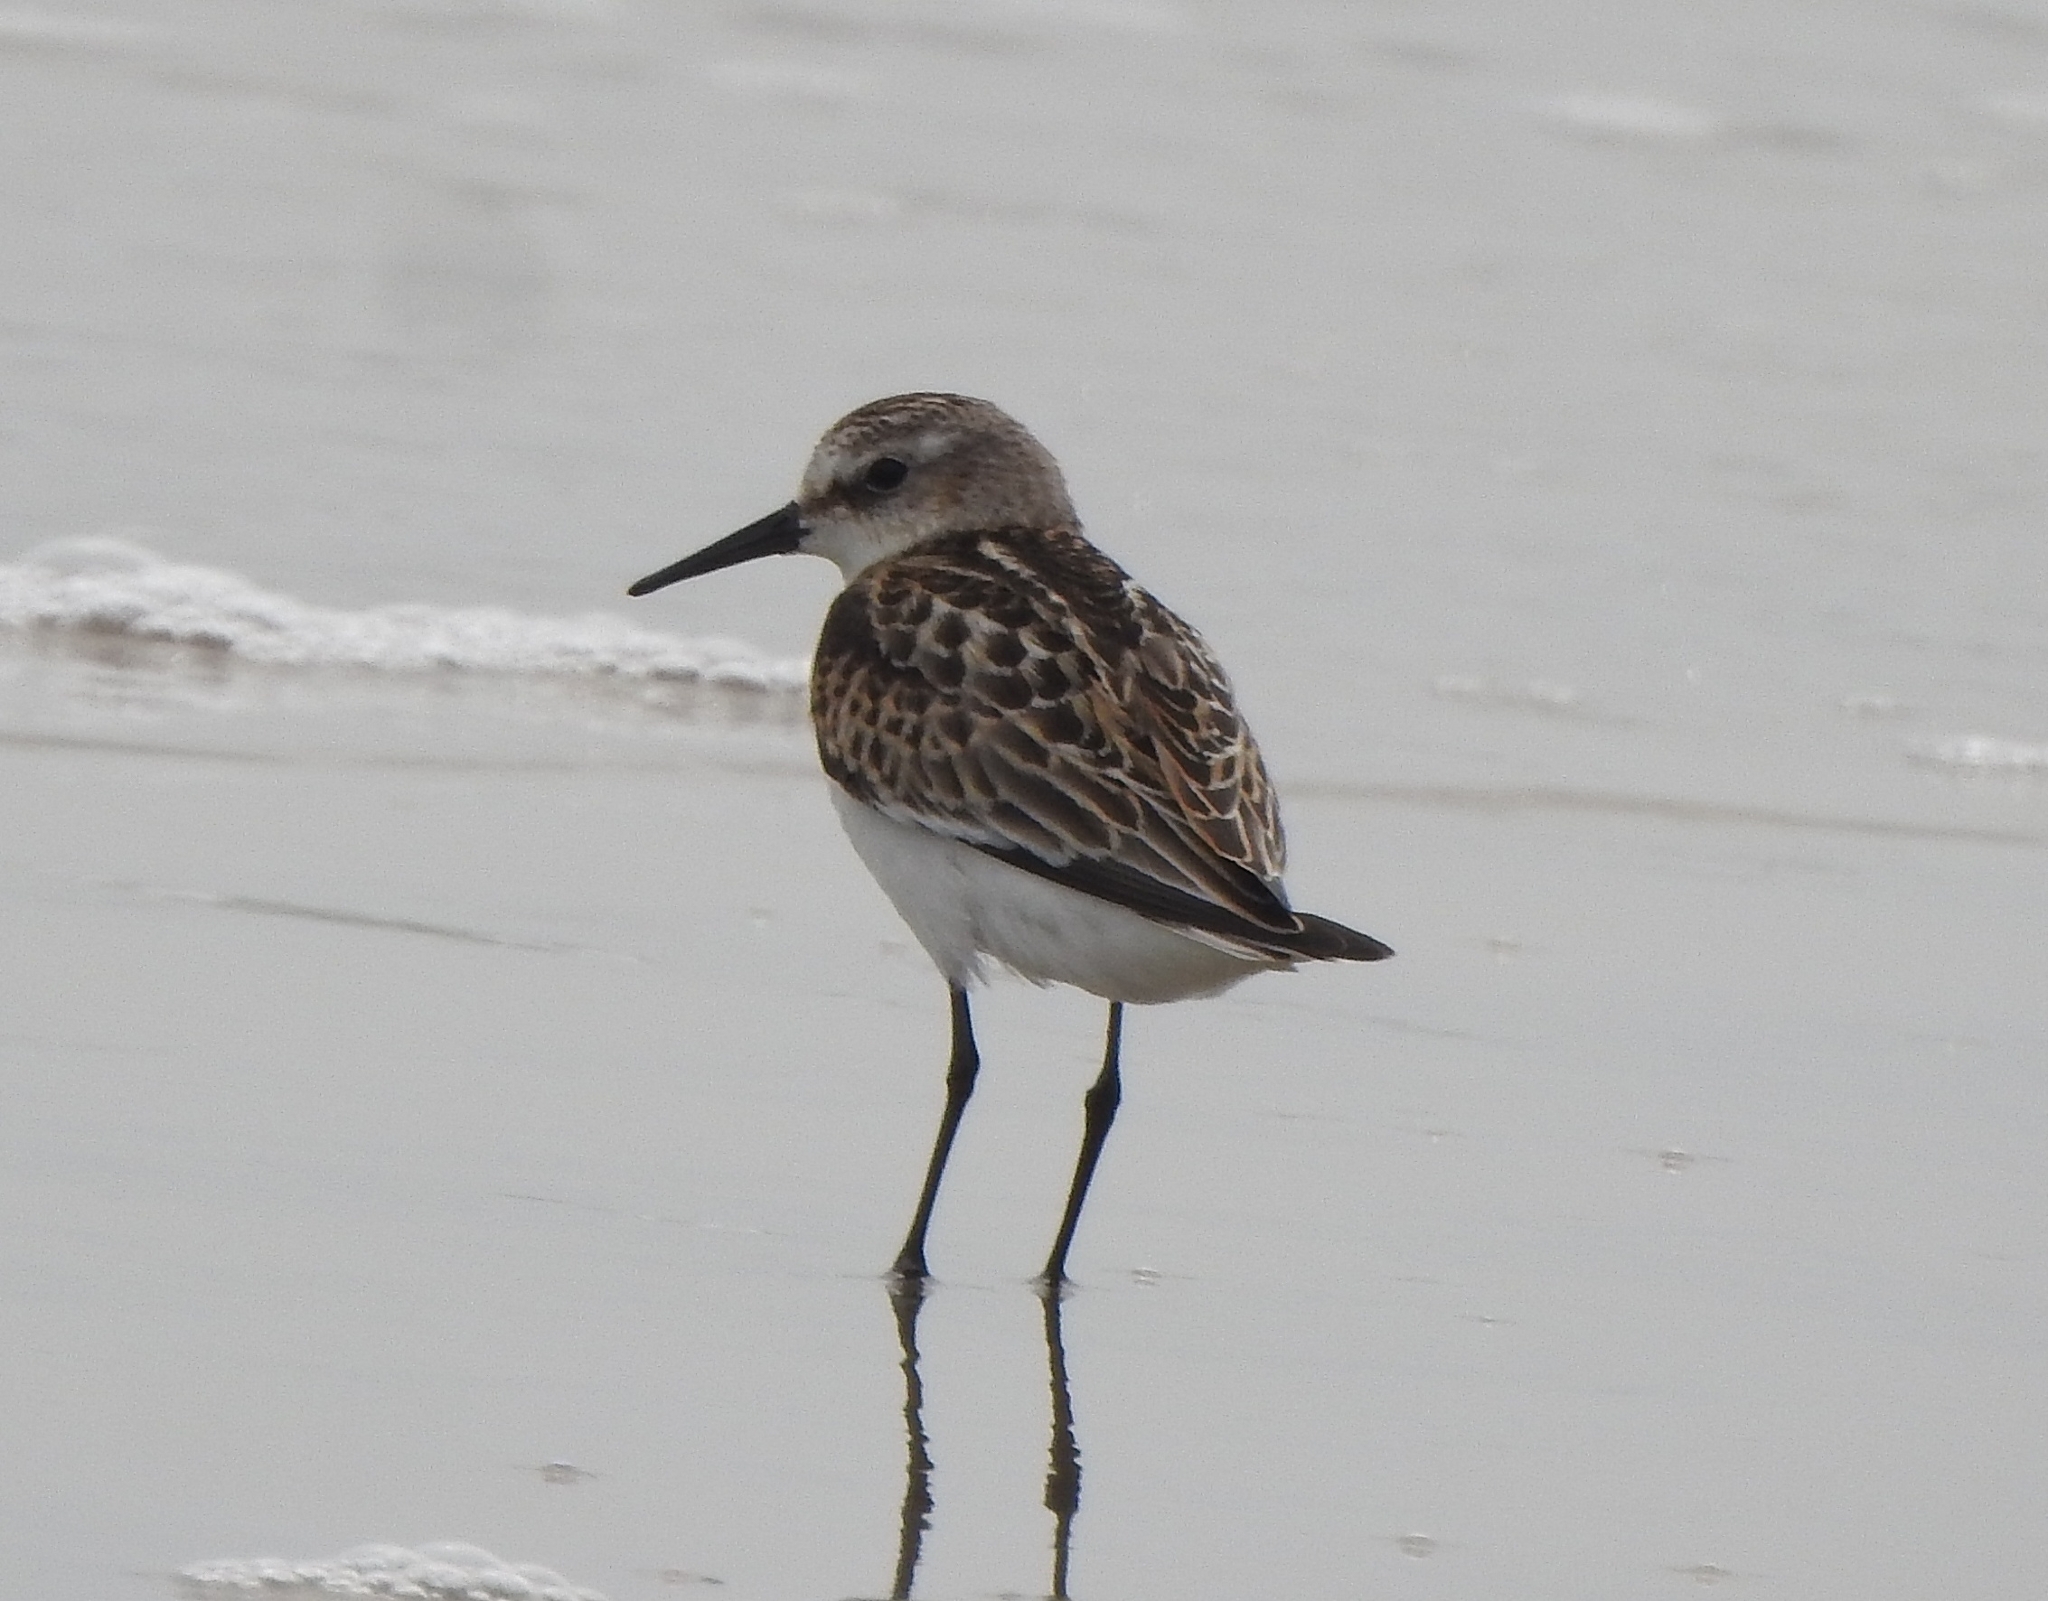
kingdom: Animalia
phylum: Chordata
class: Aves
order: Charadriiformes
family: Scolopacidae
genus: Calidris
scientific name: Calidris minuta
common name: Little stint
